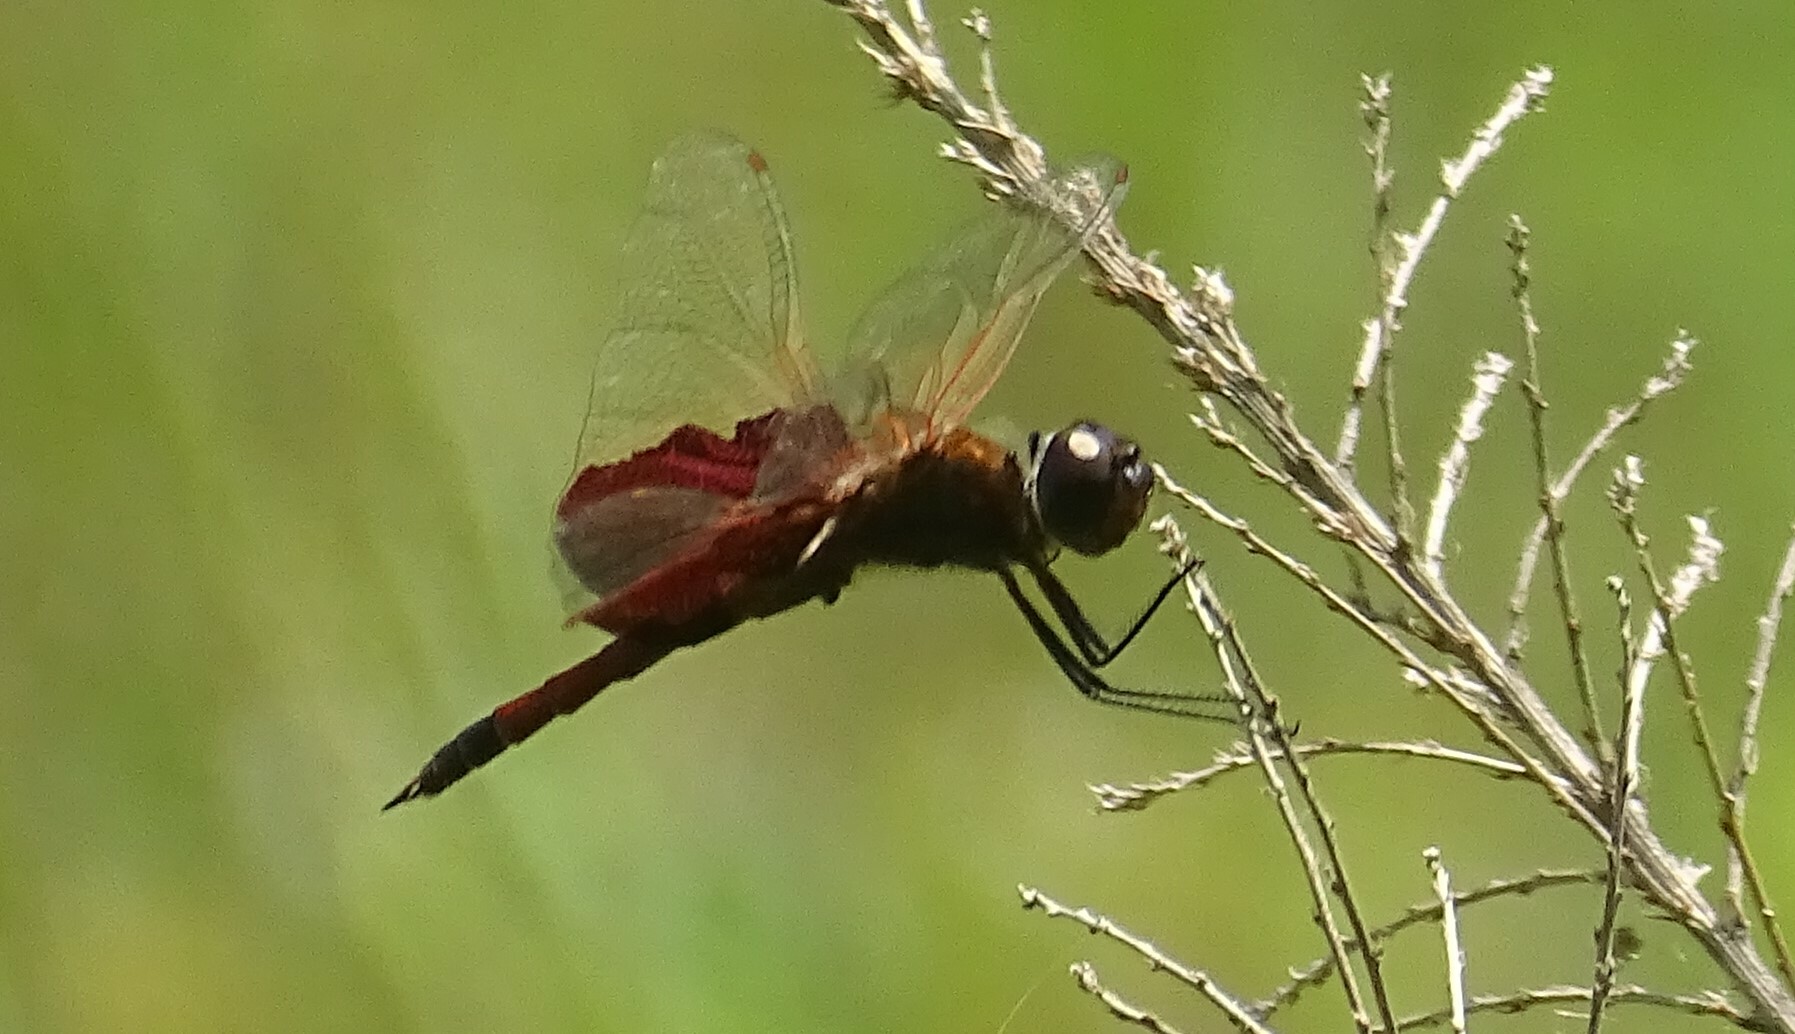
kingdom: Animalia
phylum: Arthropoda
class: Insecta
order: Odonata
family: Libellulidae
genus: Tramea
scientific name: Tramea carolina
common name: Carolina saddlebags
